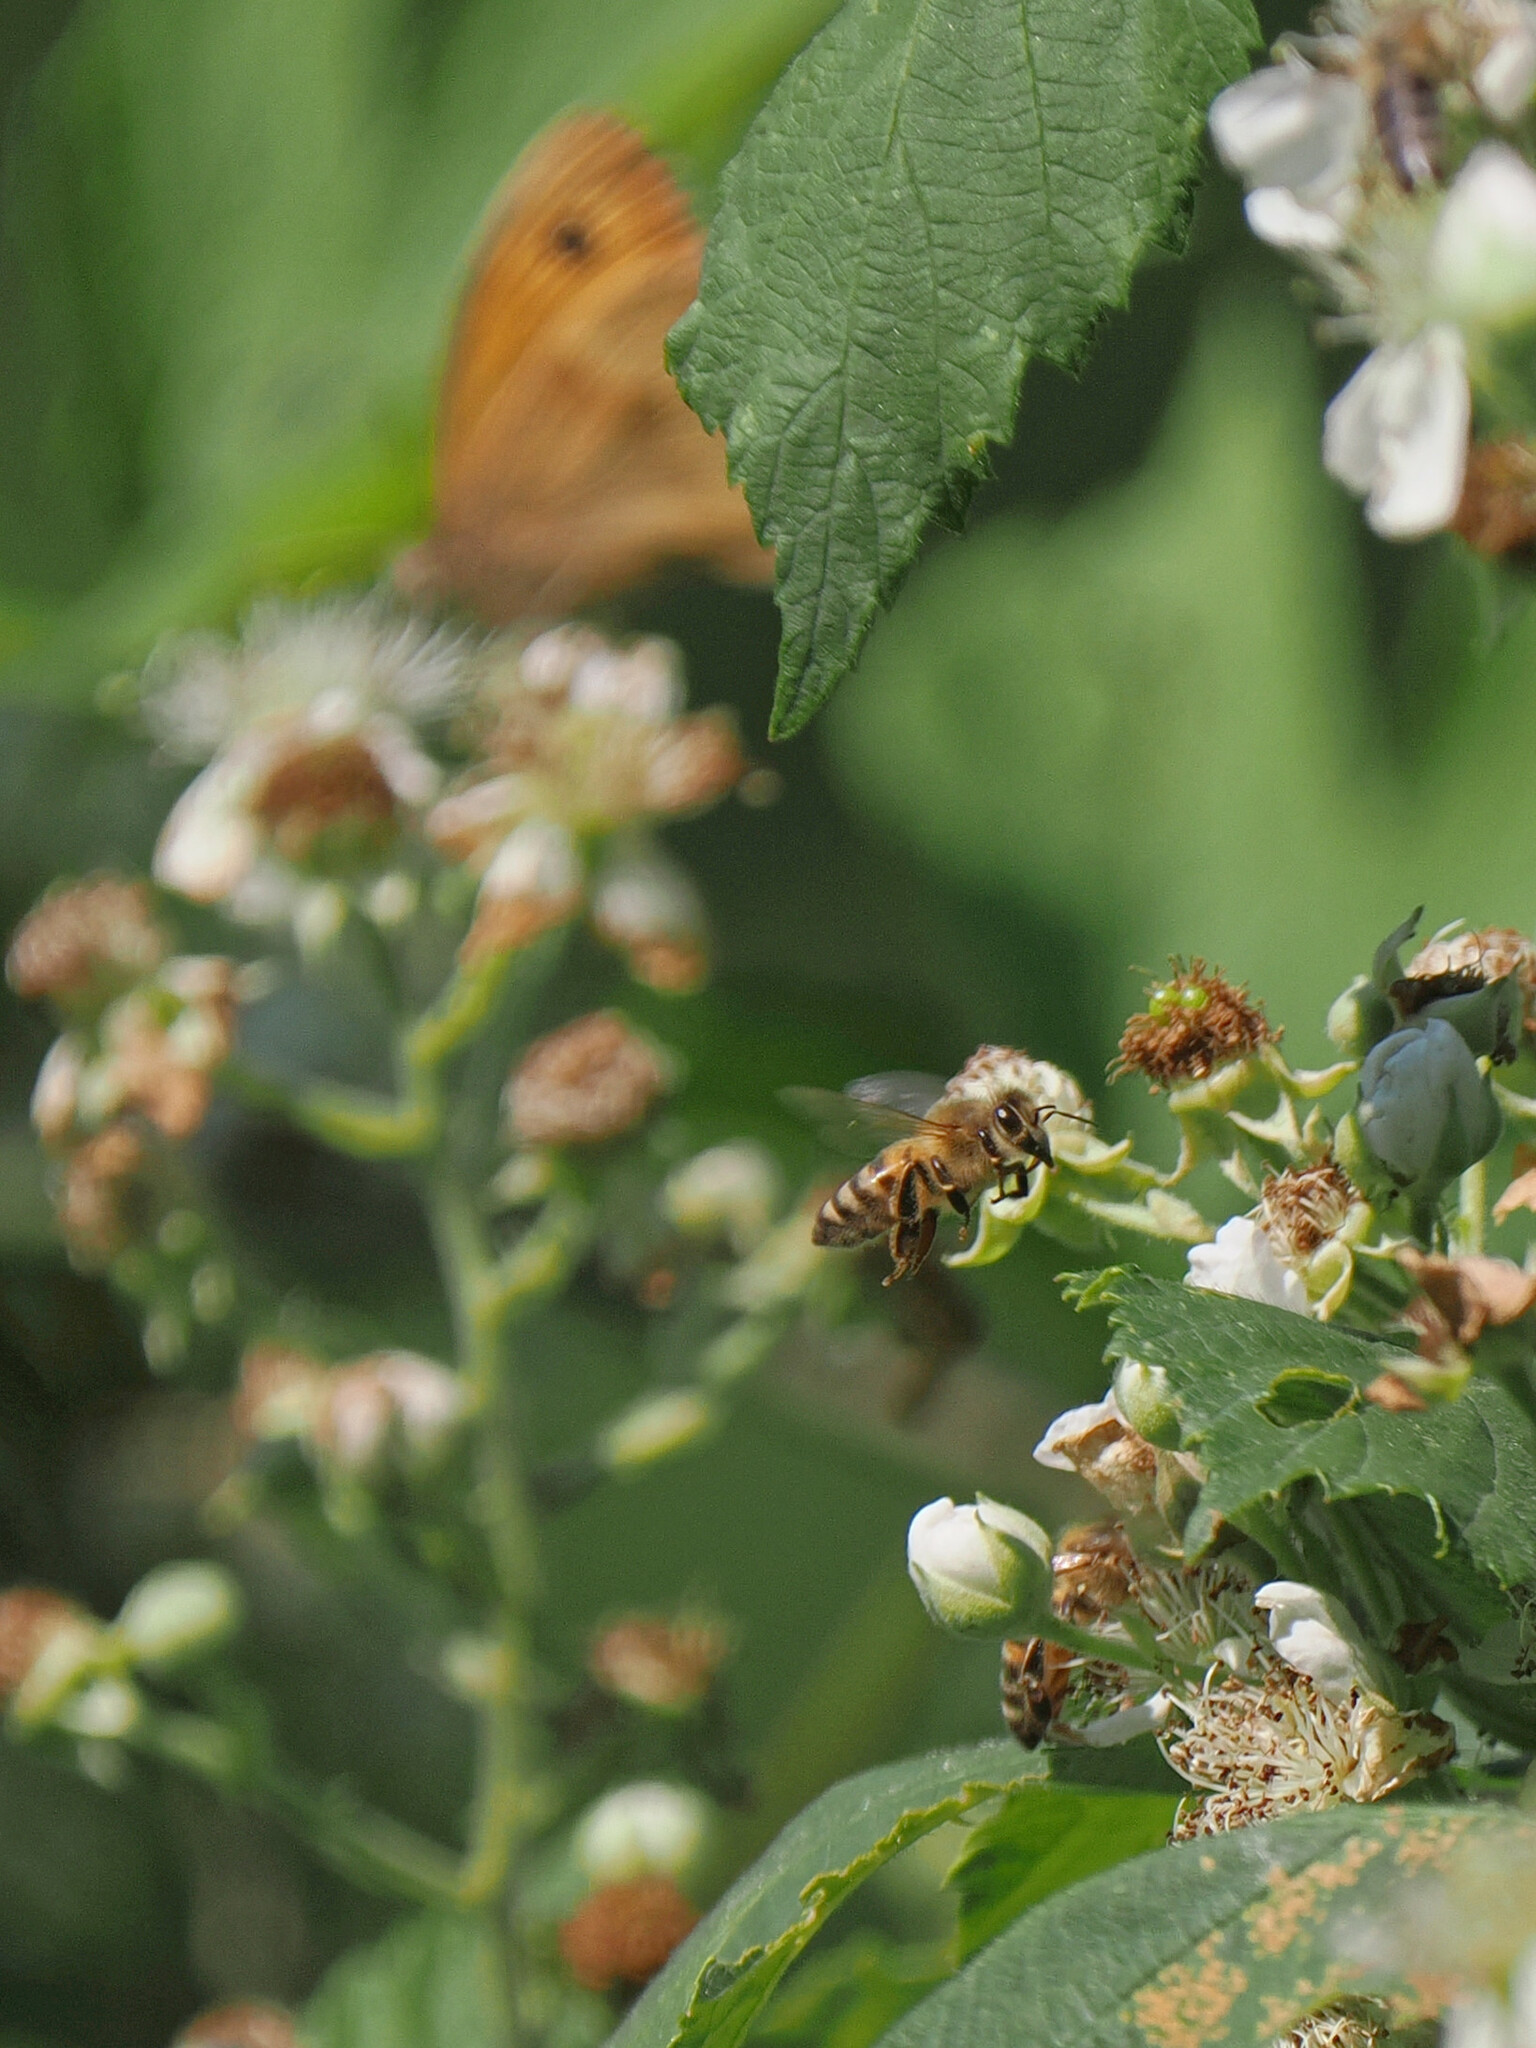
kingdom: Animalia
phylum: Arthropoda
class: Insecta
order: Hymenoptera
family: Apidae
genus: Apis
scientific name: Apis mellifera
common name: Honey bee
